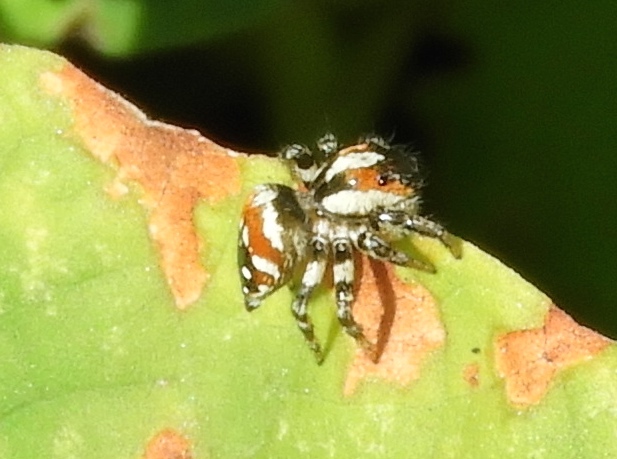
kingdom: Animalia
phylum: Arthropoda
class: Arachnida
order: Araneae
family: Salticidae
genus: Nycerella
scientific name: Nycerella delecta
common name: Jumping spiders
